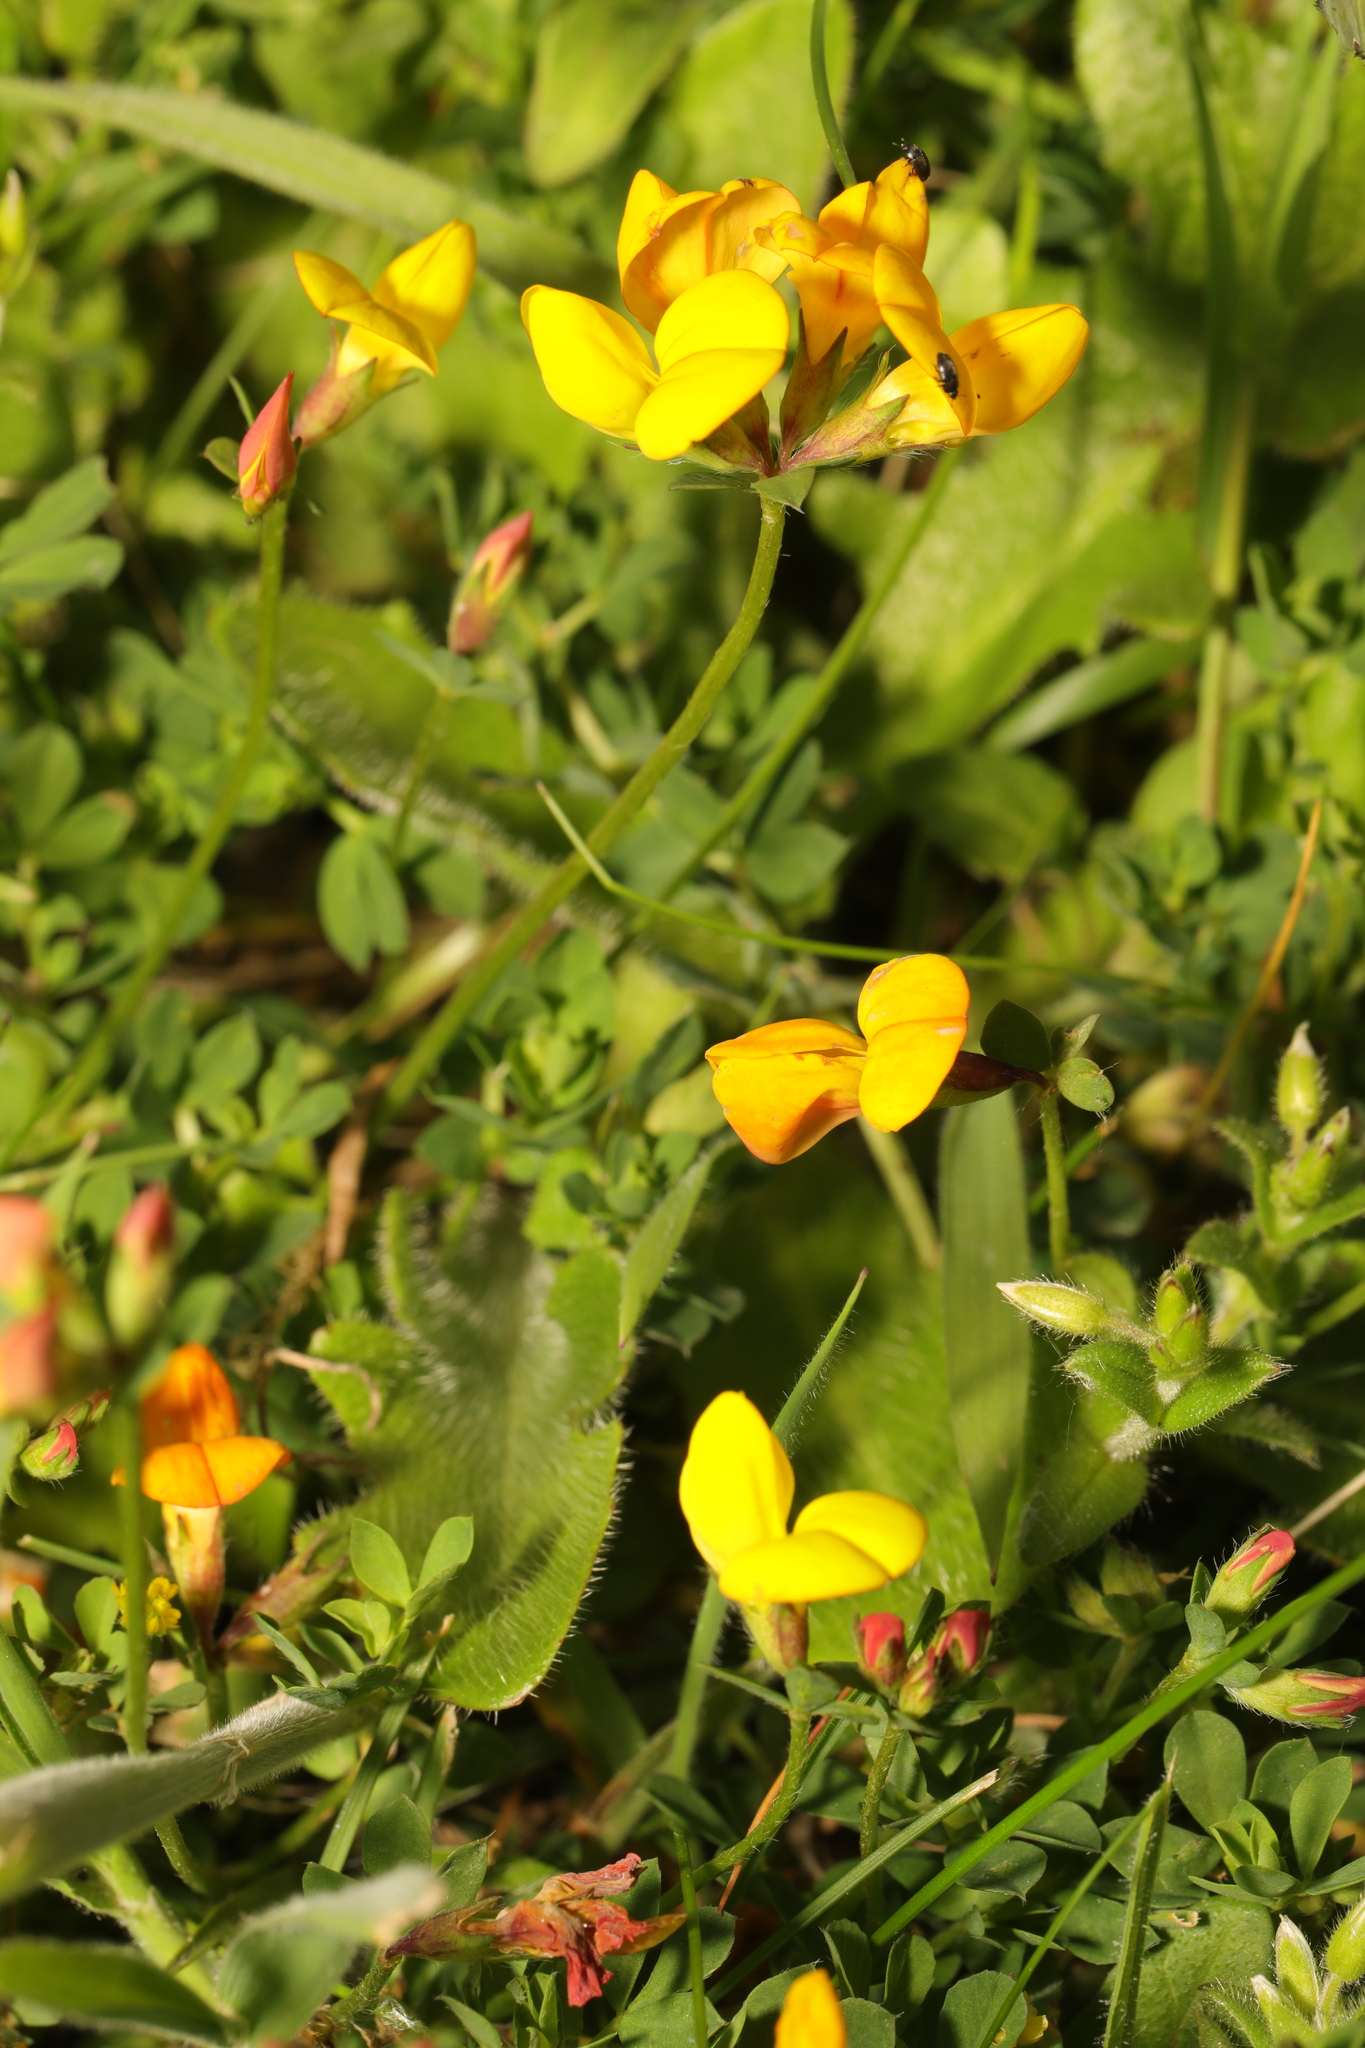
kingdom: Plantae
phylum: Tracheophyta
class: Magnoliopsida
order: Fabales
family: Fabaceae
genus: Lotus
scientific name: Lotus corniculatus
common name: Common bird's-foot-trefoil
